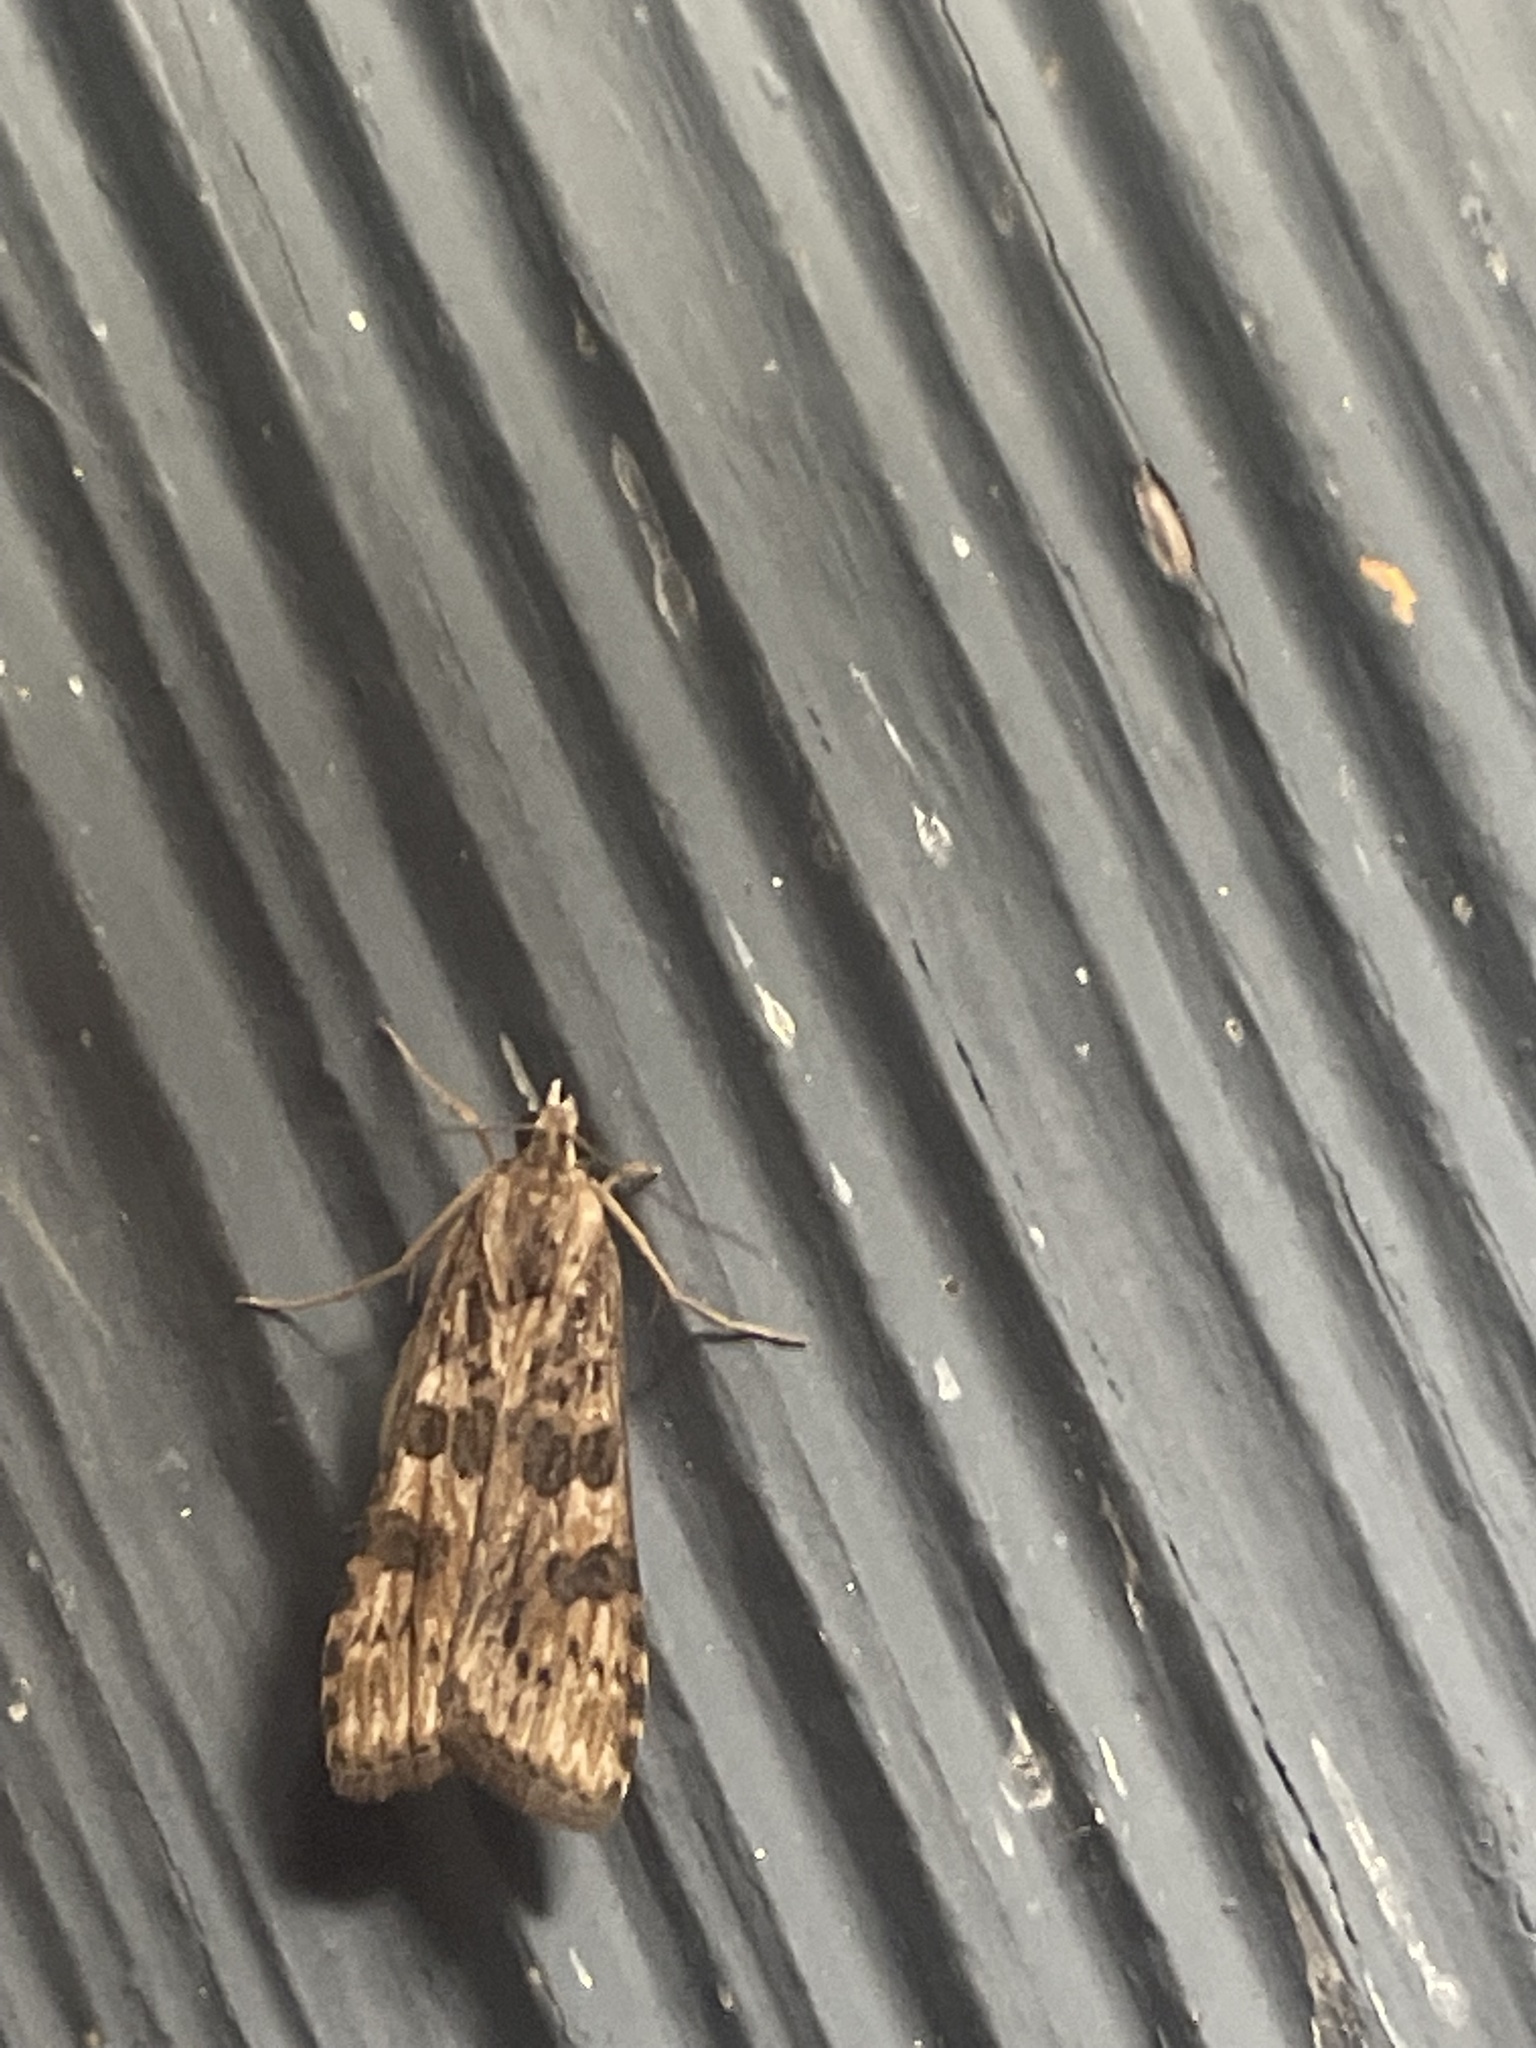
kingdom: Animalia
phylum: Arthropoda
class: Insecta
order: Lepidoptera
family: Crambidae
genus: Nomophila
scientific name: Nomophila nearctica
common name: American rush veneer
